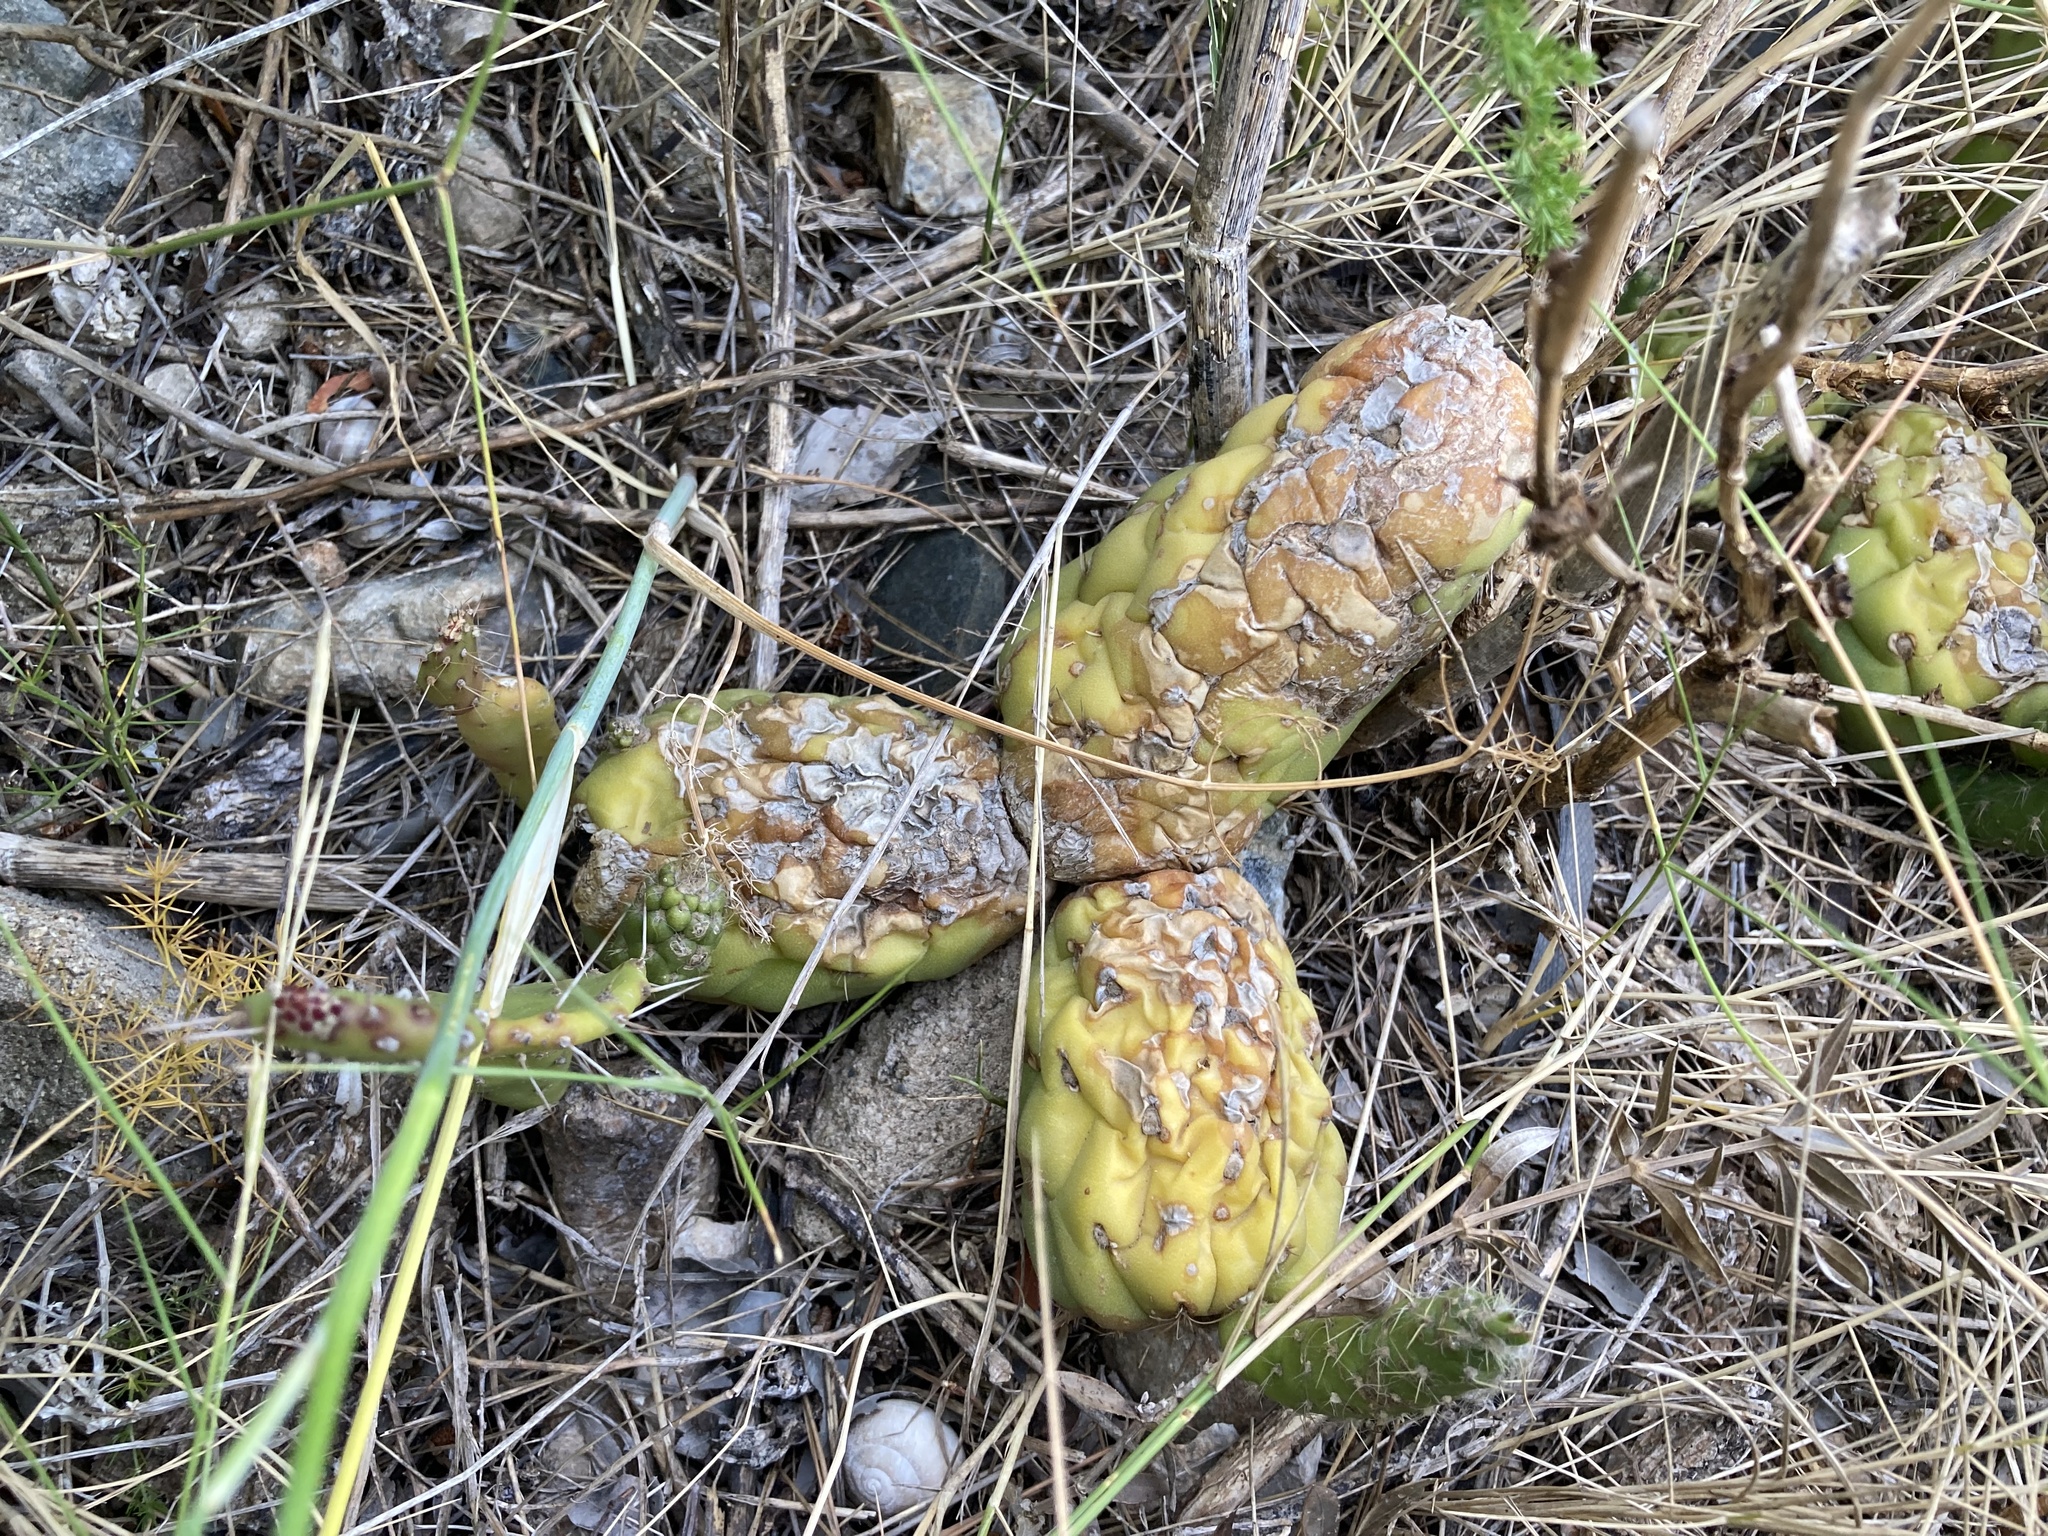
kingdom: Plantae
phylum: Tracheophyta
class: Magnoliopsida
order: Caryophyllales
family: Cactaceae
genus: Austrocylindropuntia
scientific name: Austrocylindropuntia subulata
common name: Eve's needle cactus
